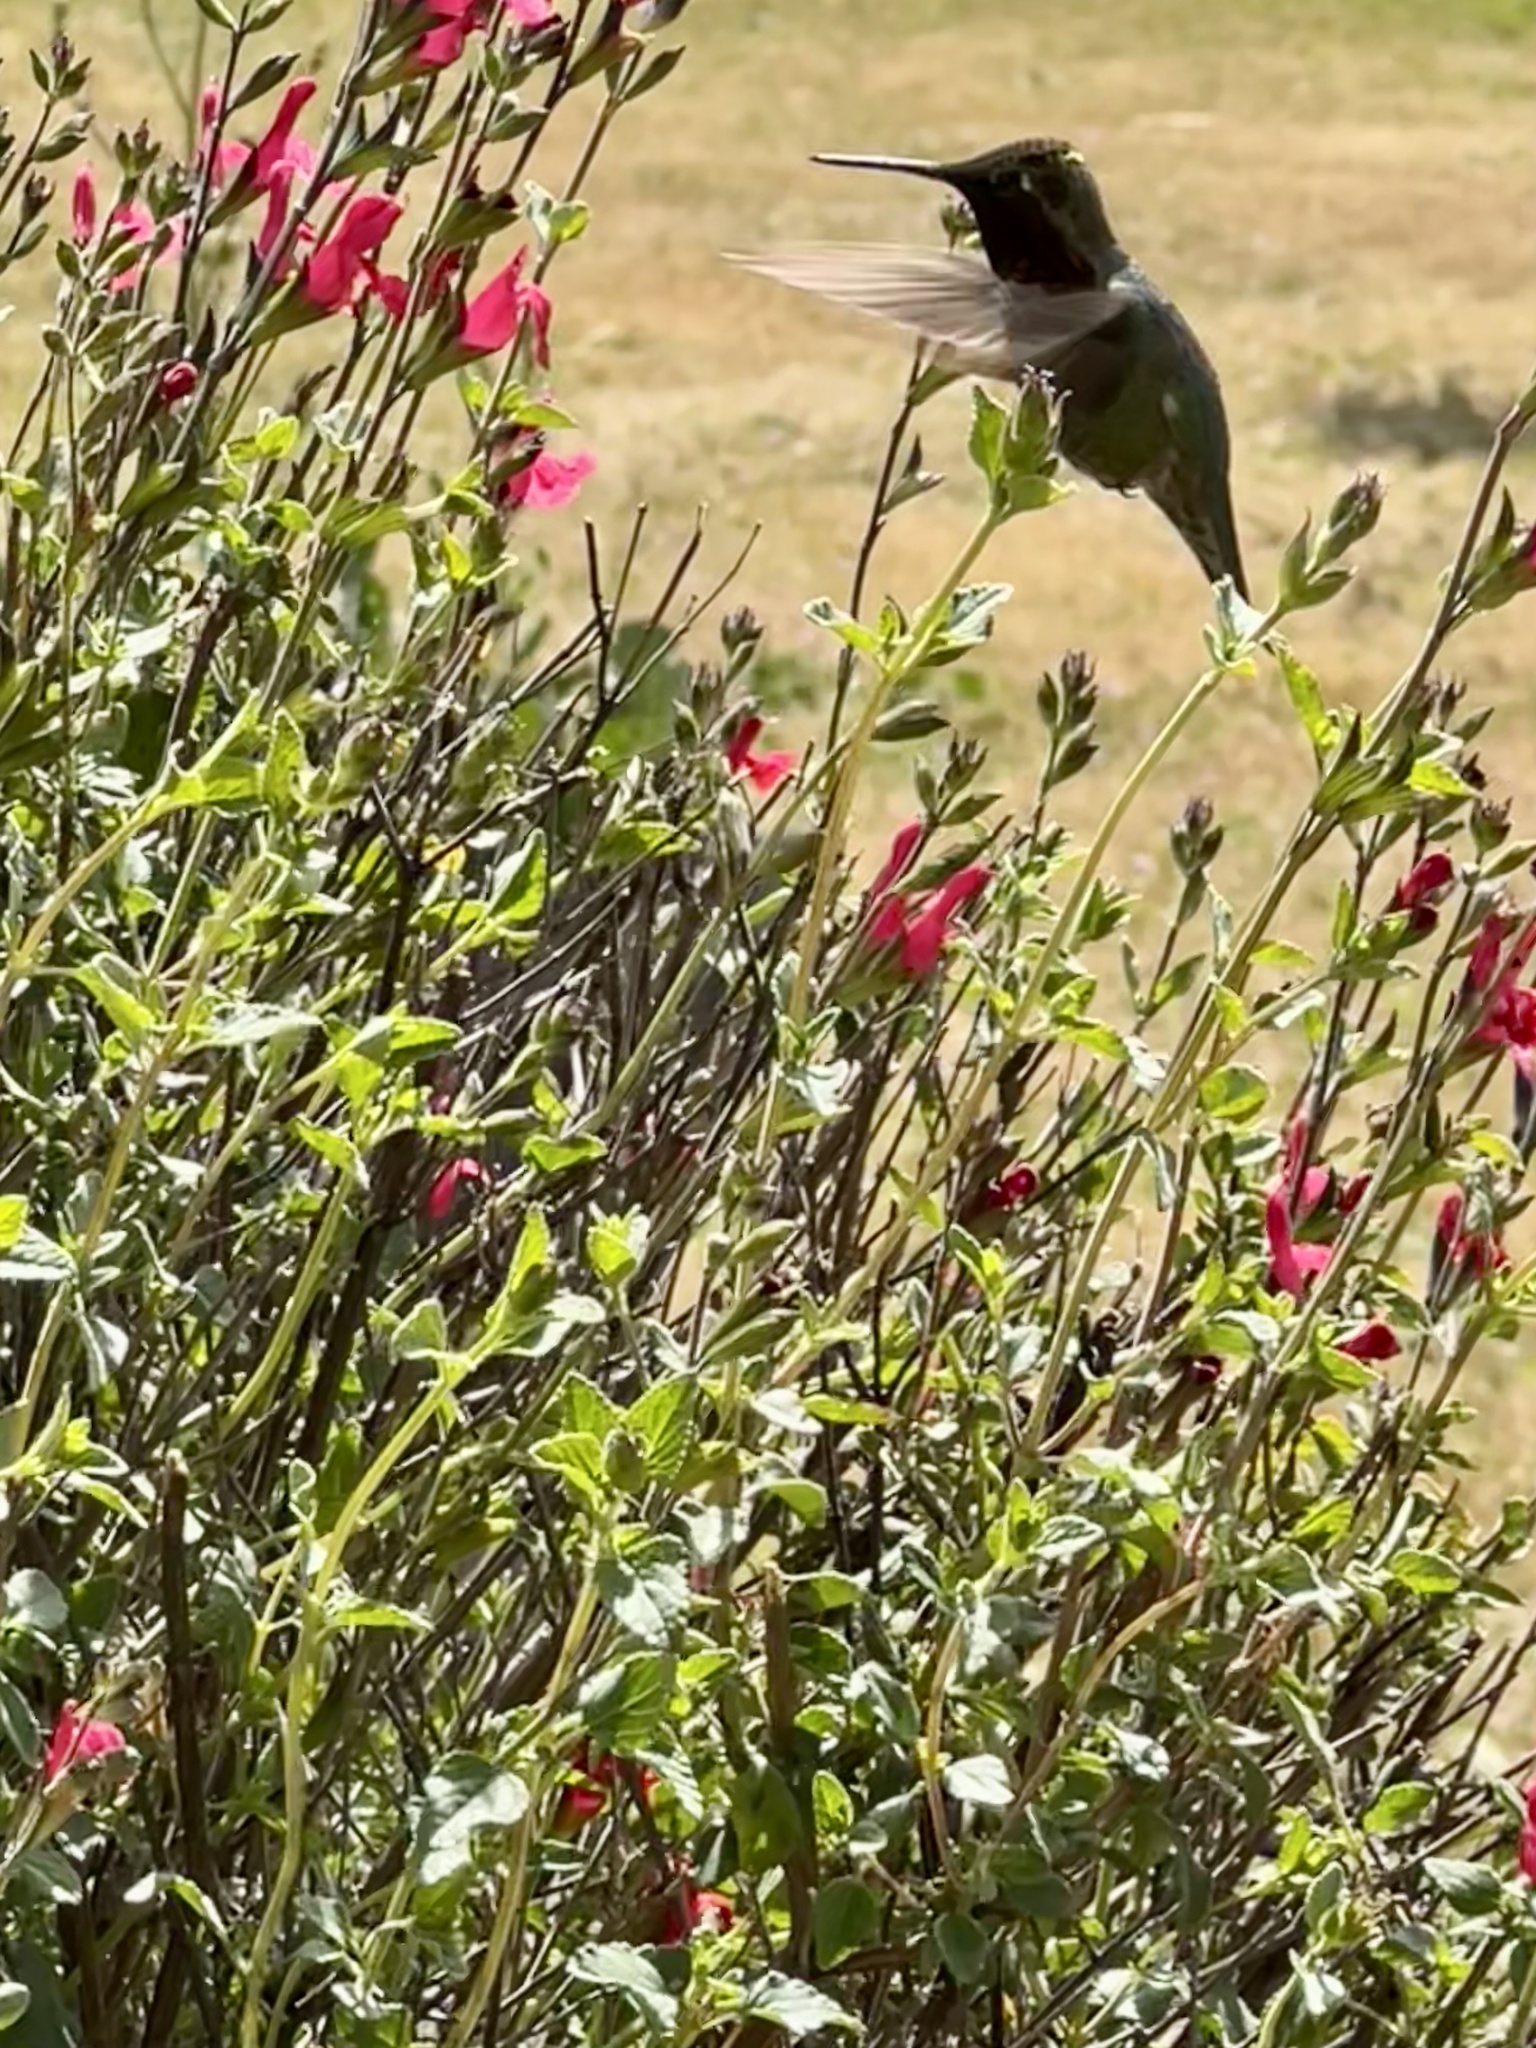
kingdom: Animalia
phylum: Chordata
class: Aves
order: Apodiformes
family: Trochilidae
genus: Calypte
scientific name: Calypte anna
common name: Anna's hummingbird
